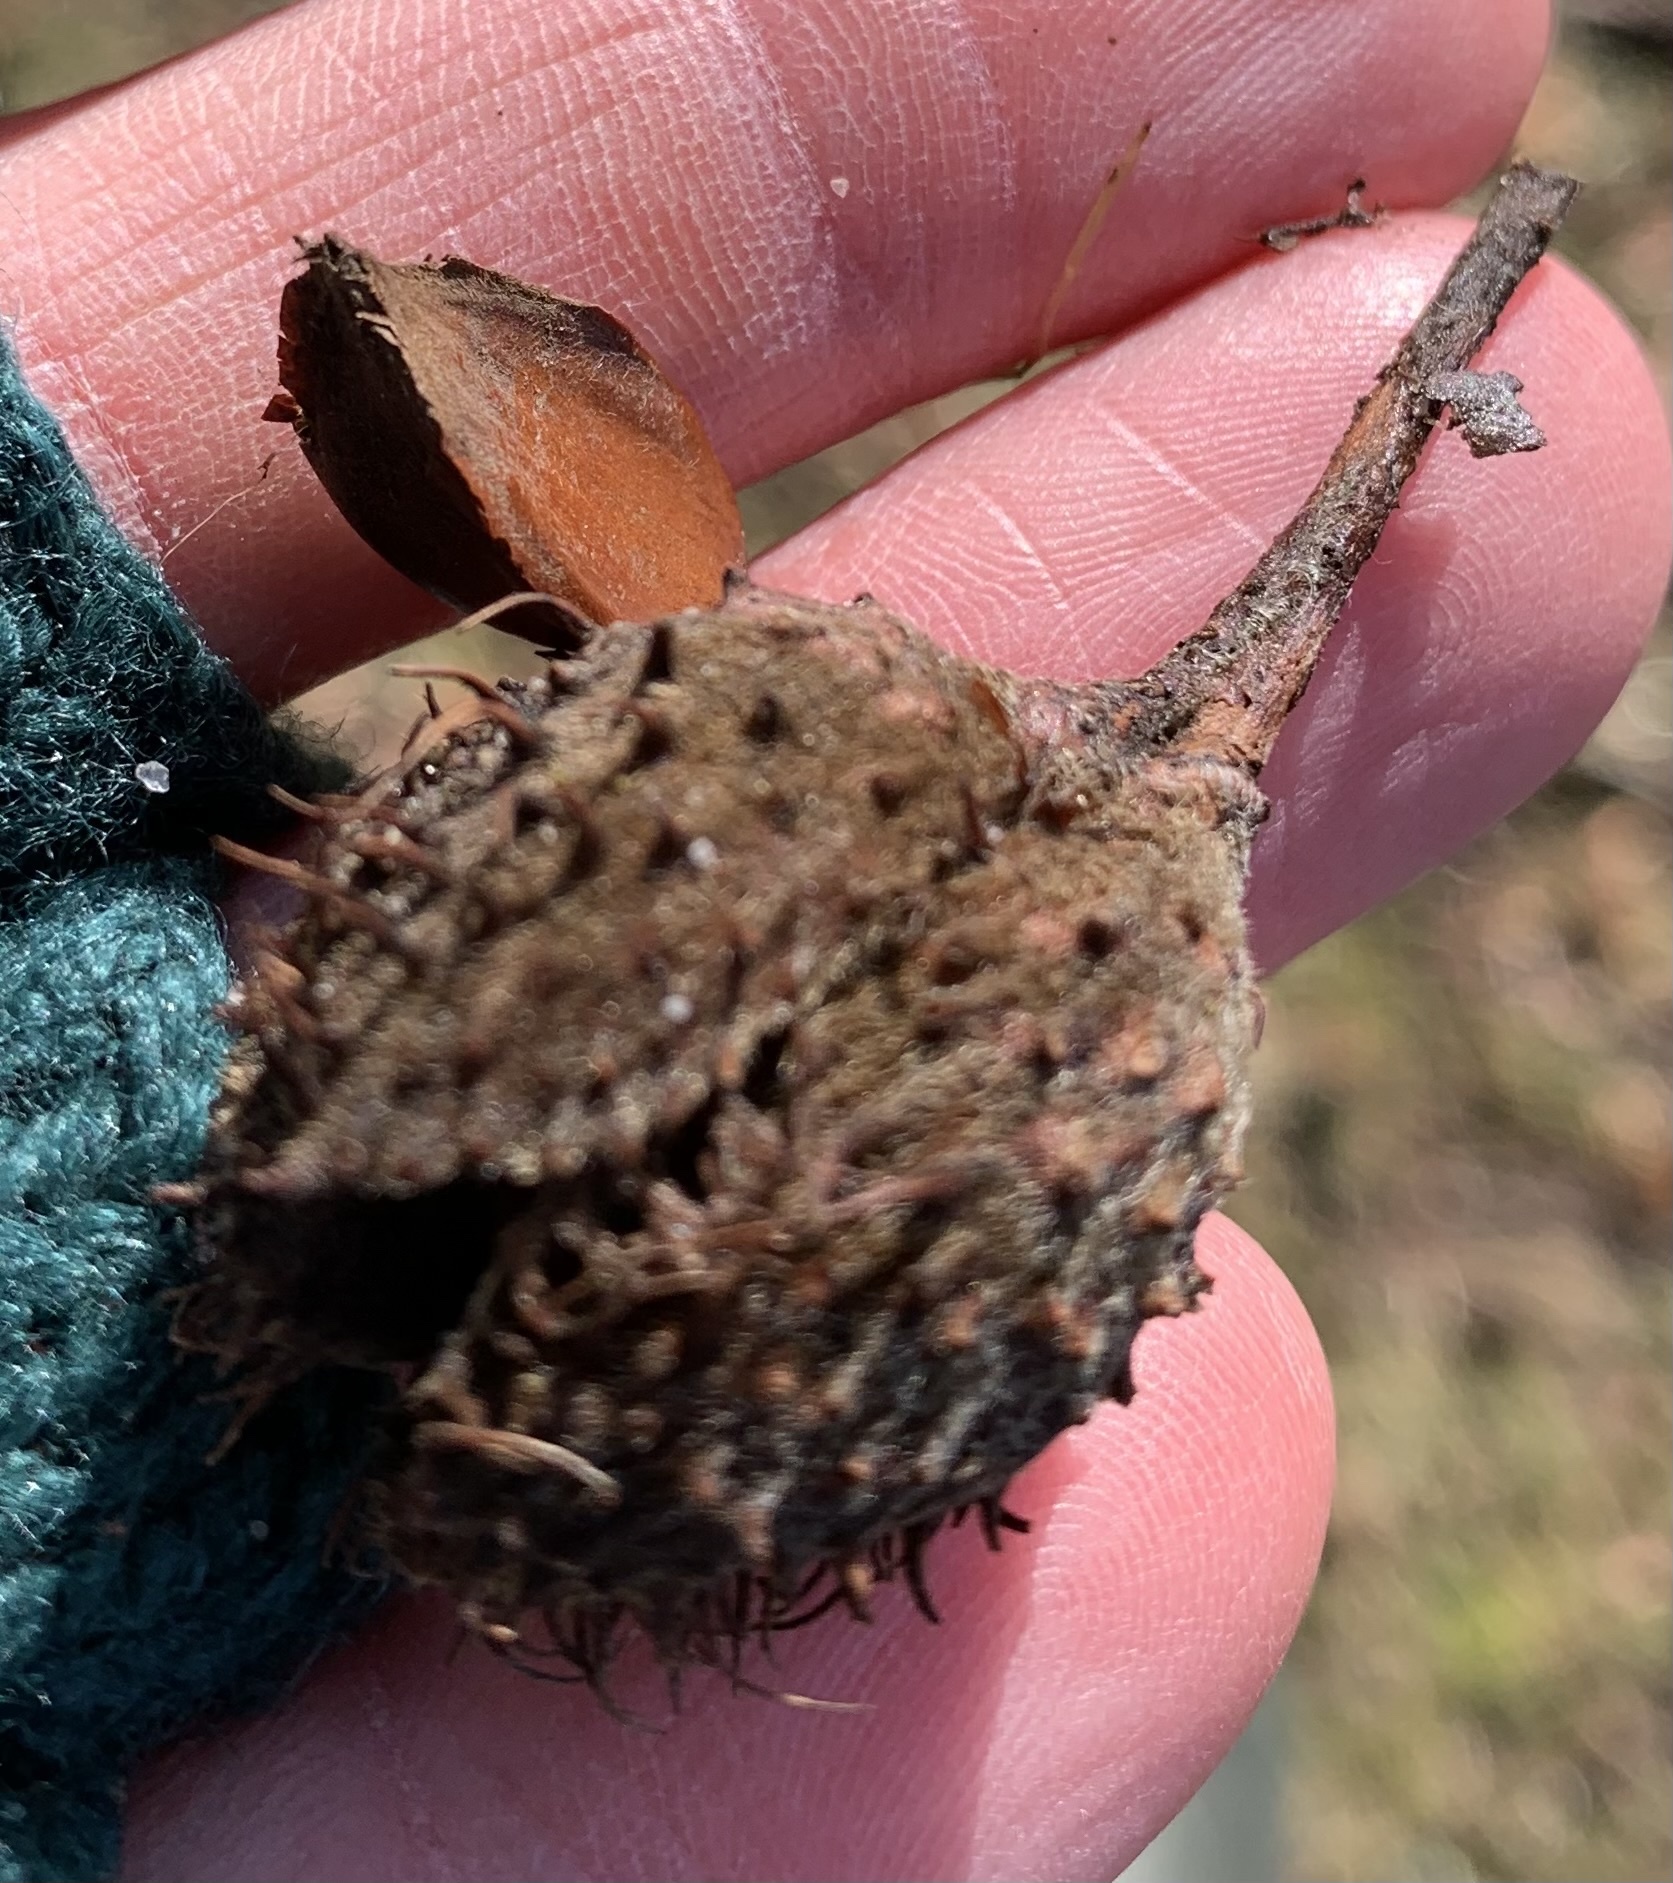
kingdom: Plantae
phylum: Tracheophyta
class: Magnoliopsida
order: Fagales
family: Fagaceae
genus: Fagus
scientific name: Fagus sylvatica
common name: Beech
